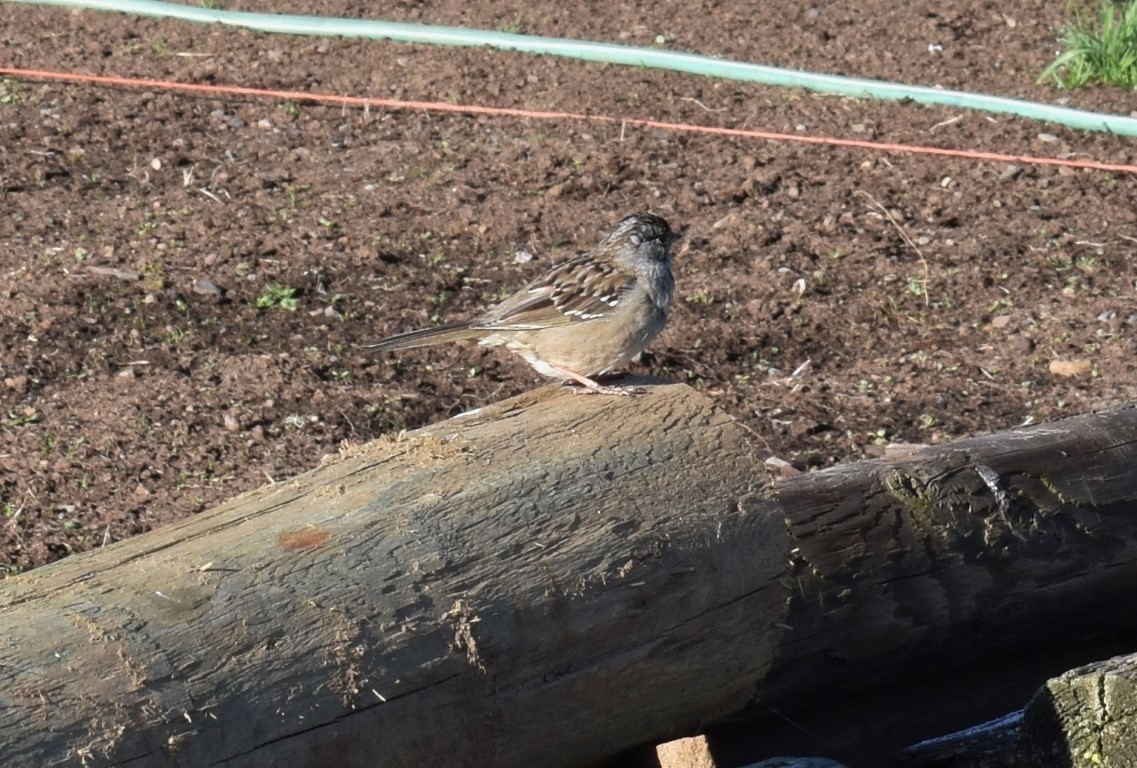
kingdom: Animalia
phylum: Chordata
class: Aves
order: Passeriformes
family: Passerellidae
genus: Zonotrichia
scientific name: Zonotrichia leucophrys
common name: White-crowned sparrow
